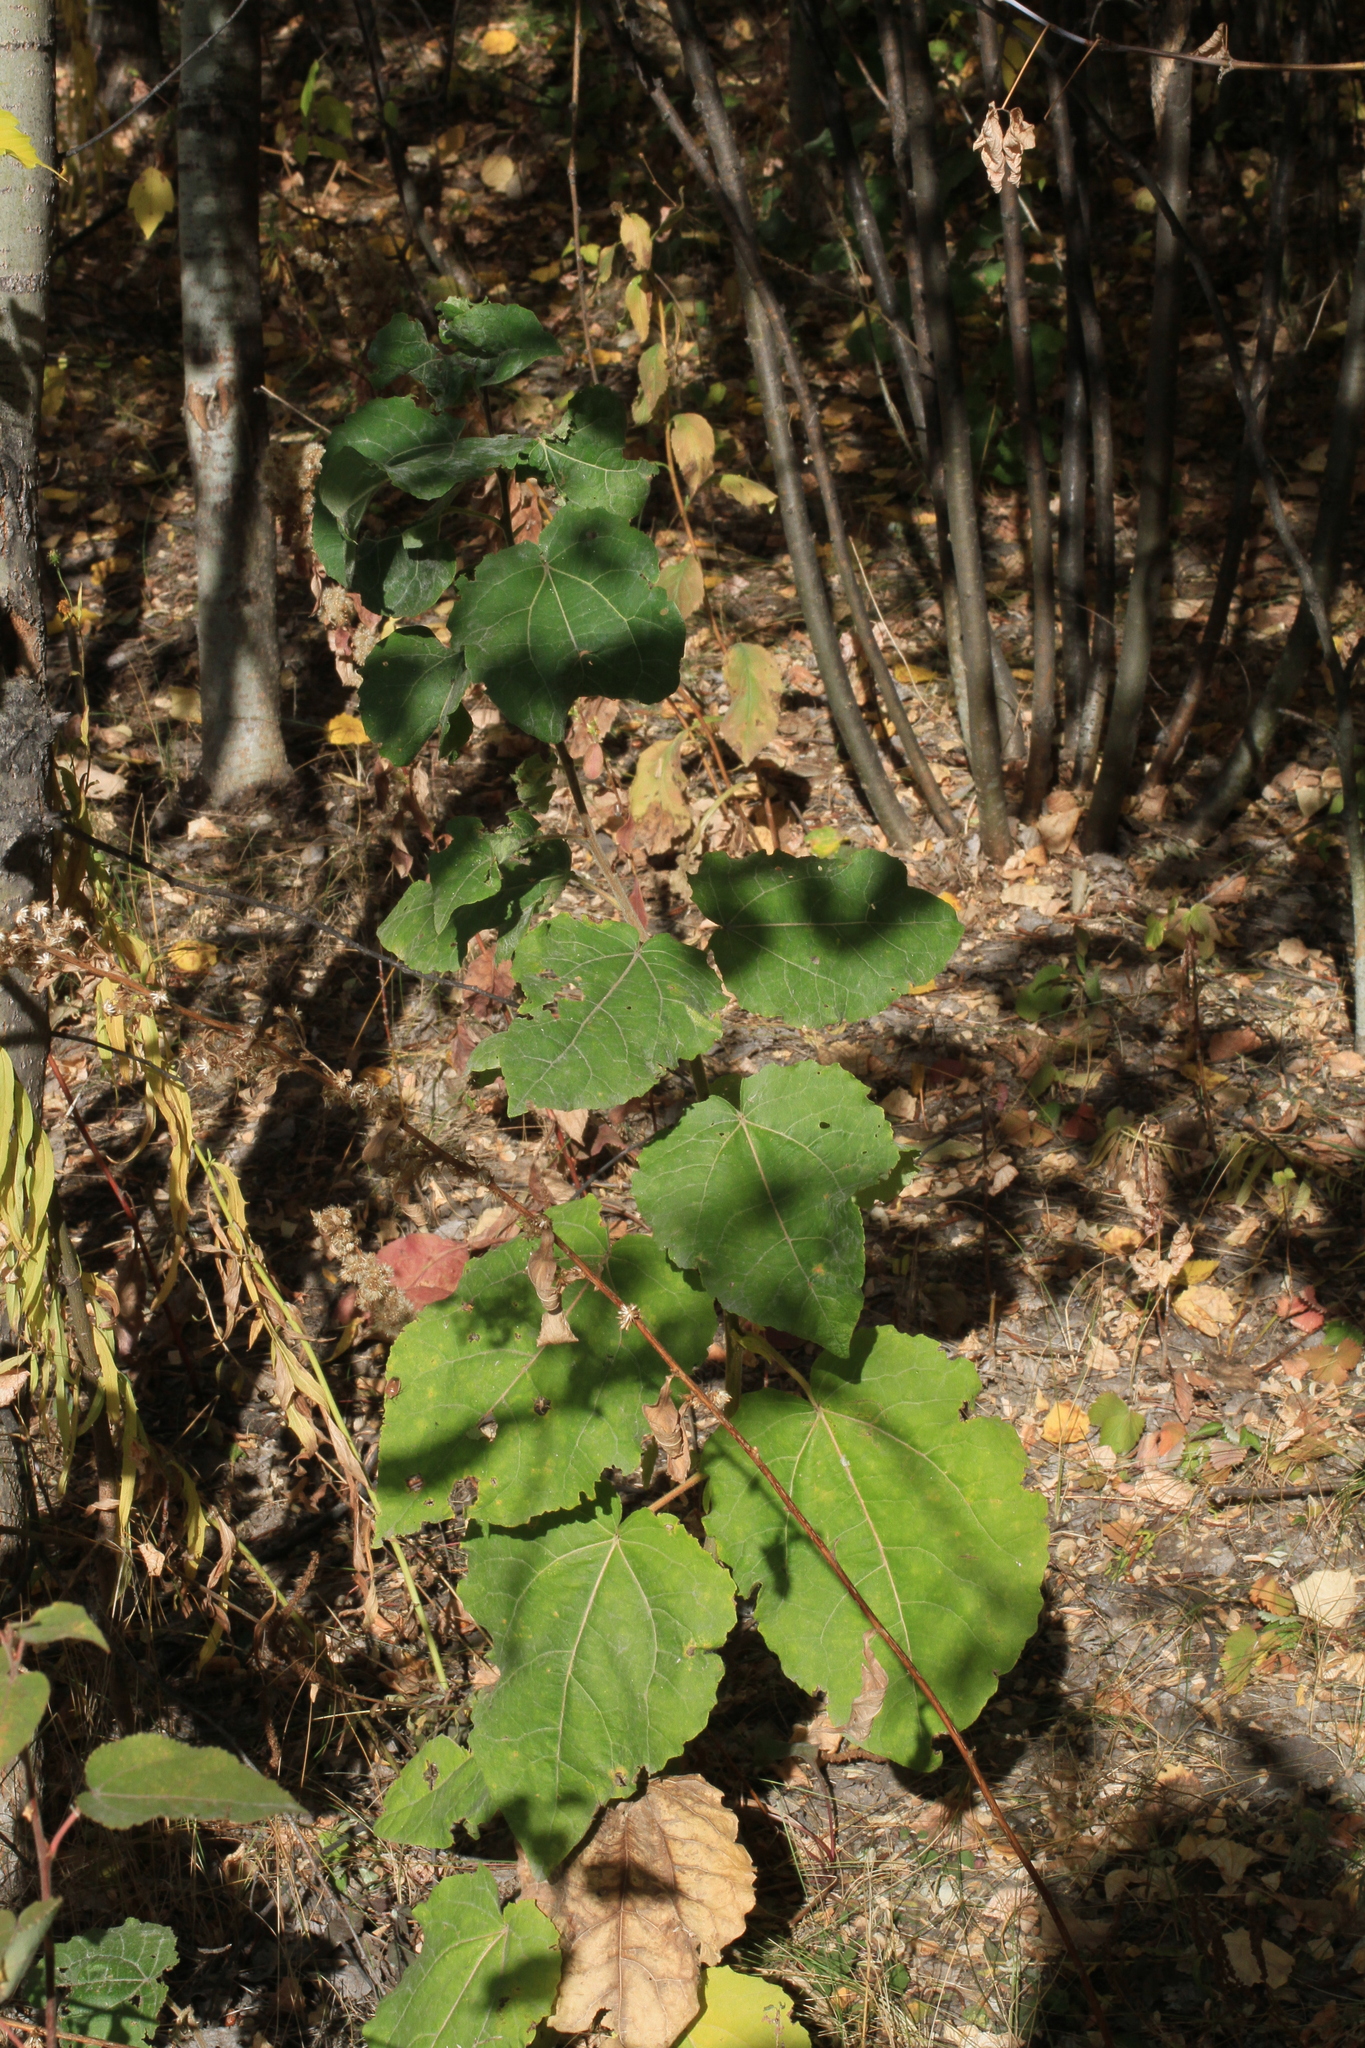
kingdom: Plantae
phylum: Tracheophyta
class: Magnoliopsida
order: Malpighiales
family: Salicaceae
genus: Populus
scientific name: Populus tremula
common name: European aspen
